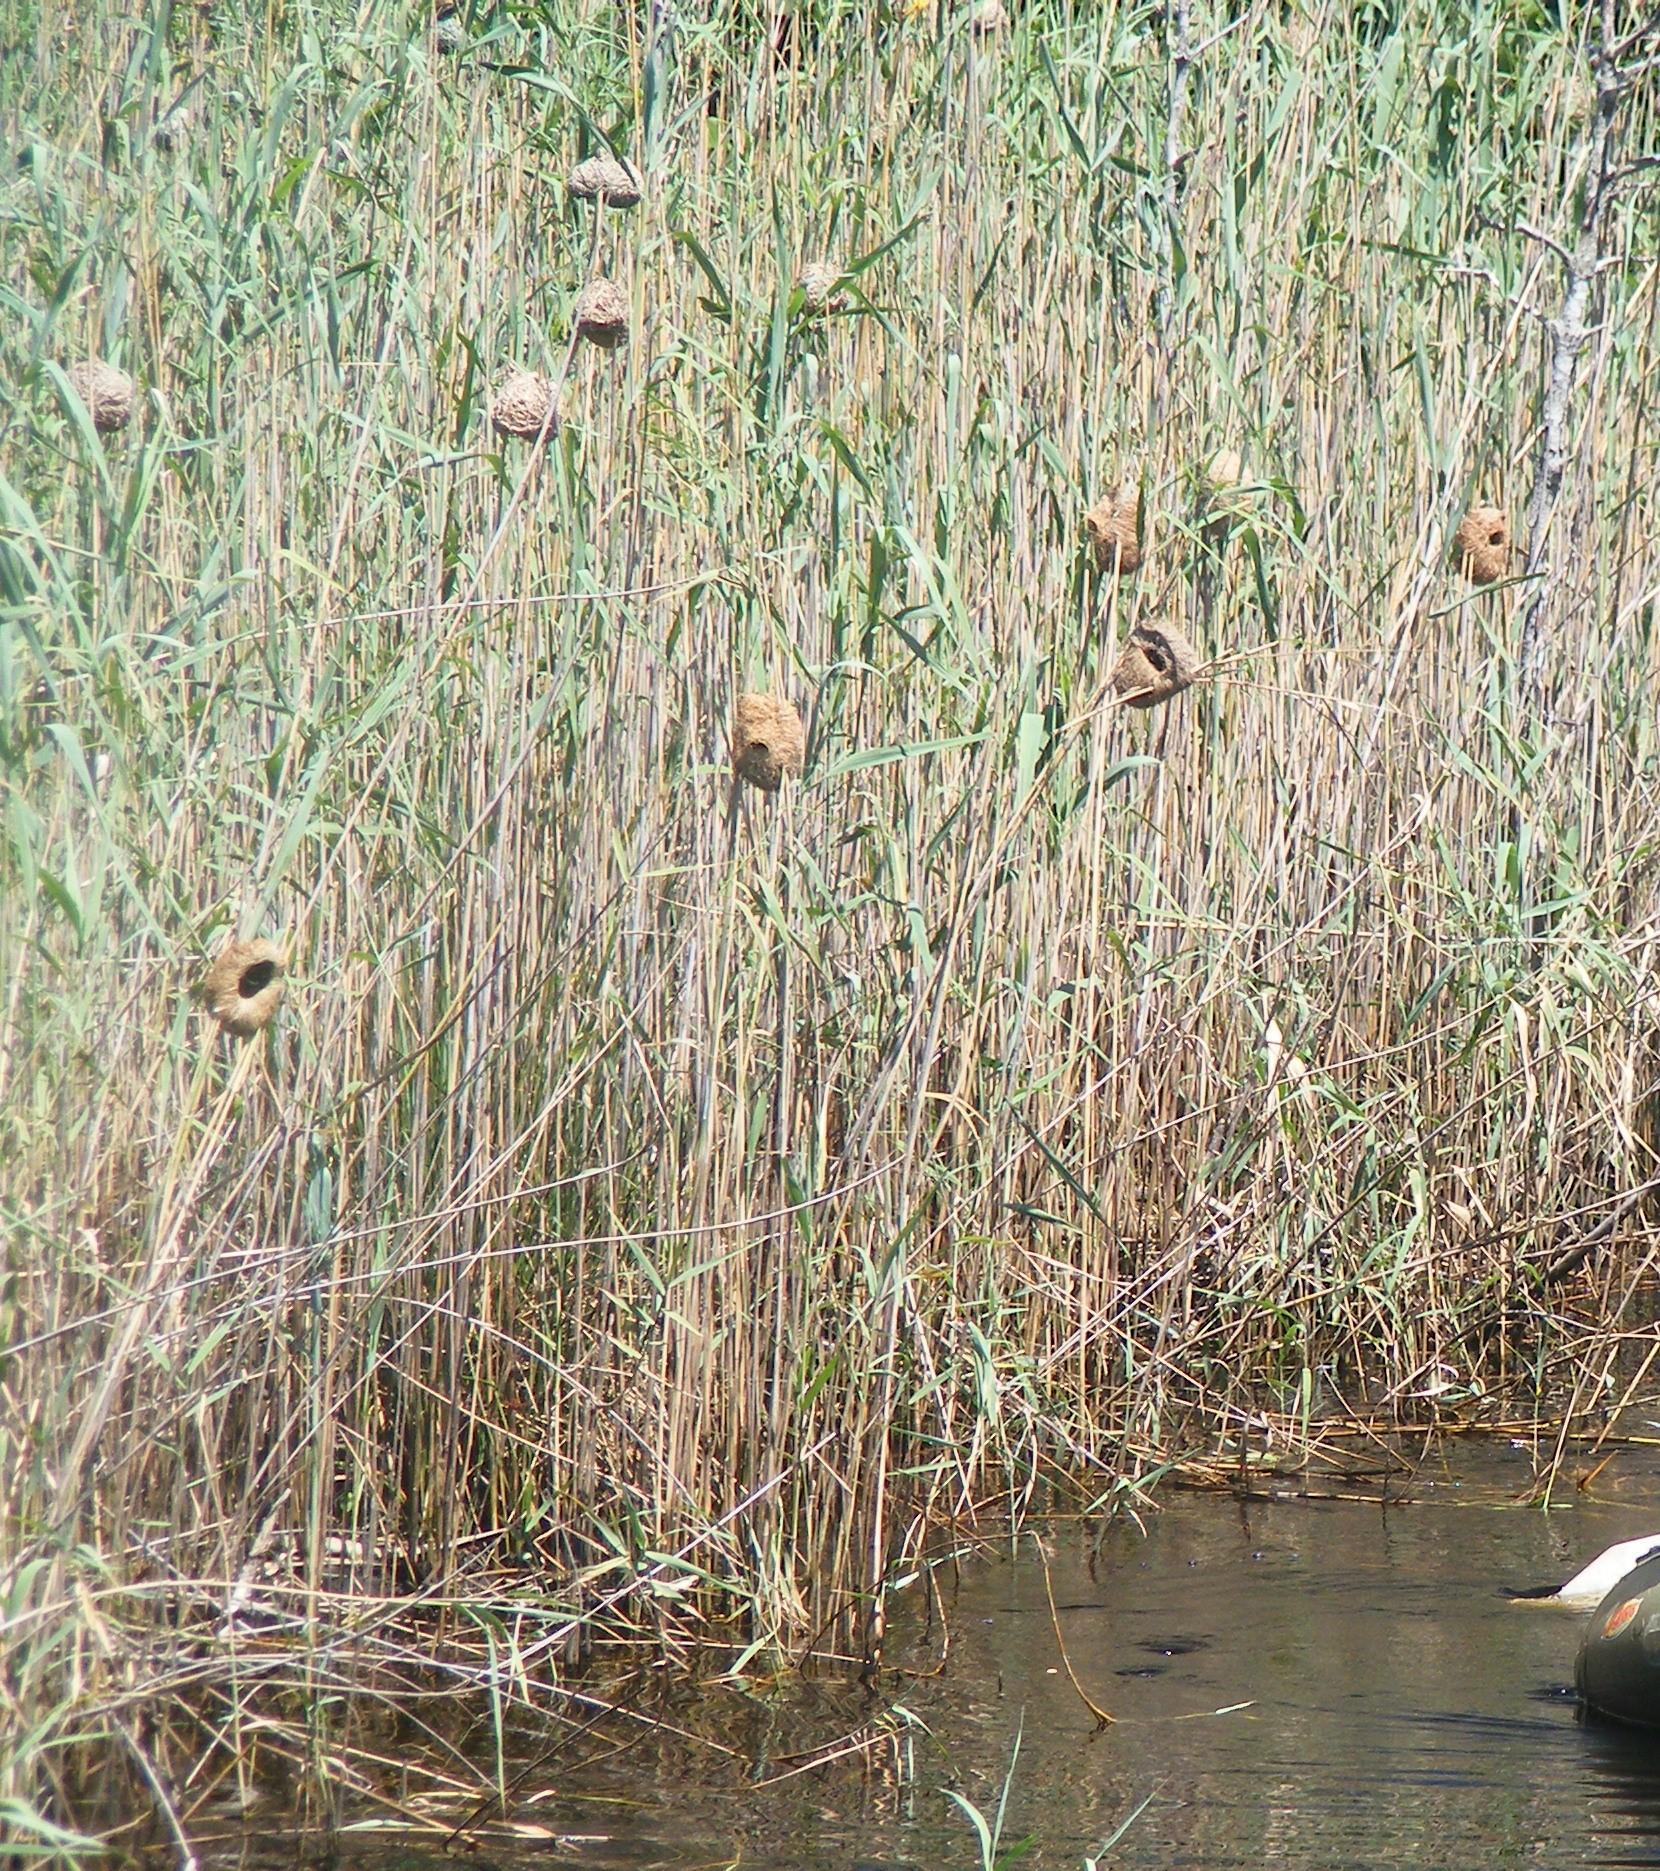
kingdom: Animalia
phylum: Chordata
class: Aves
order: Passeriformes
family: Ploceidae
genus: Ploceus
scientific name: Ploceus subaureus
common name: Yellow weaver
